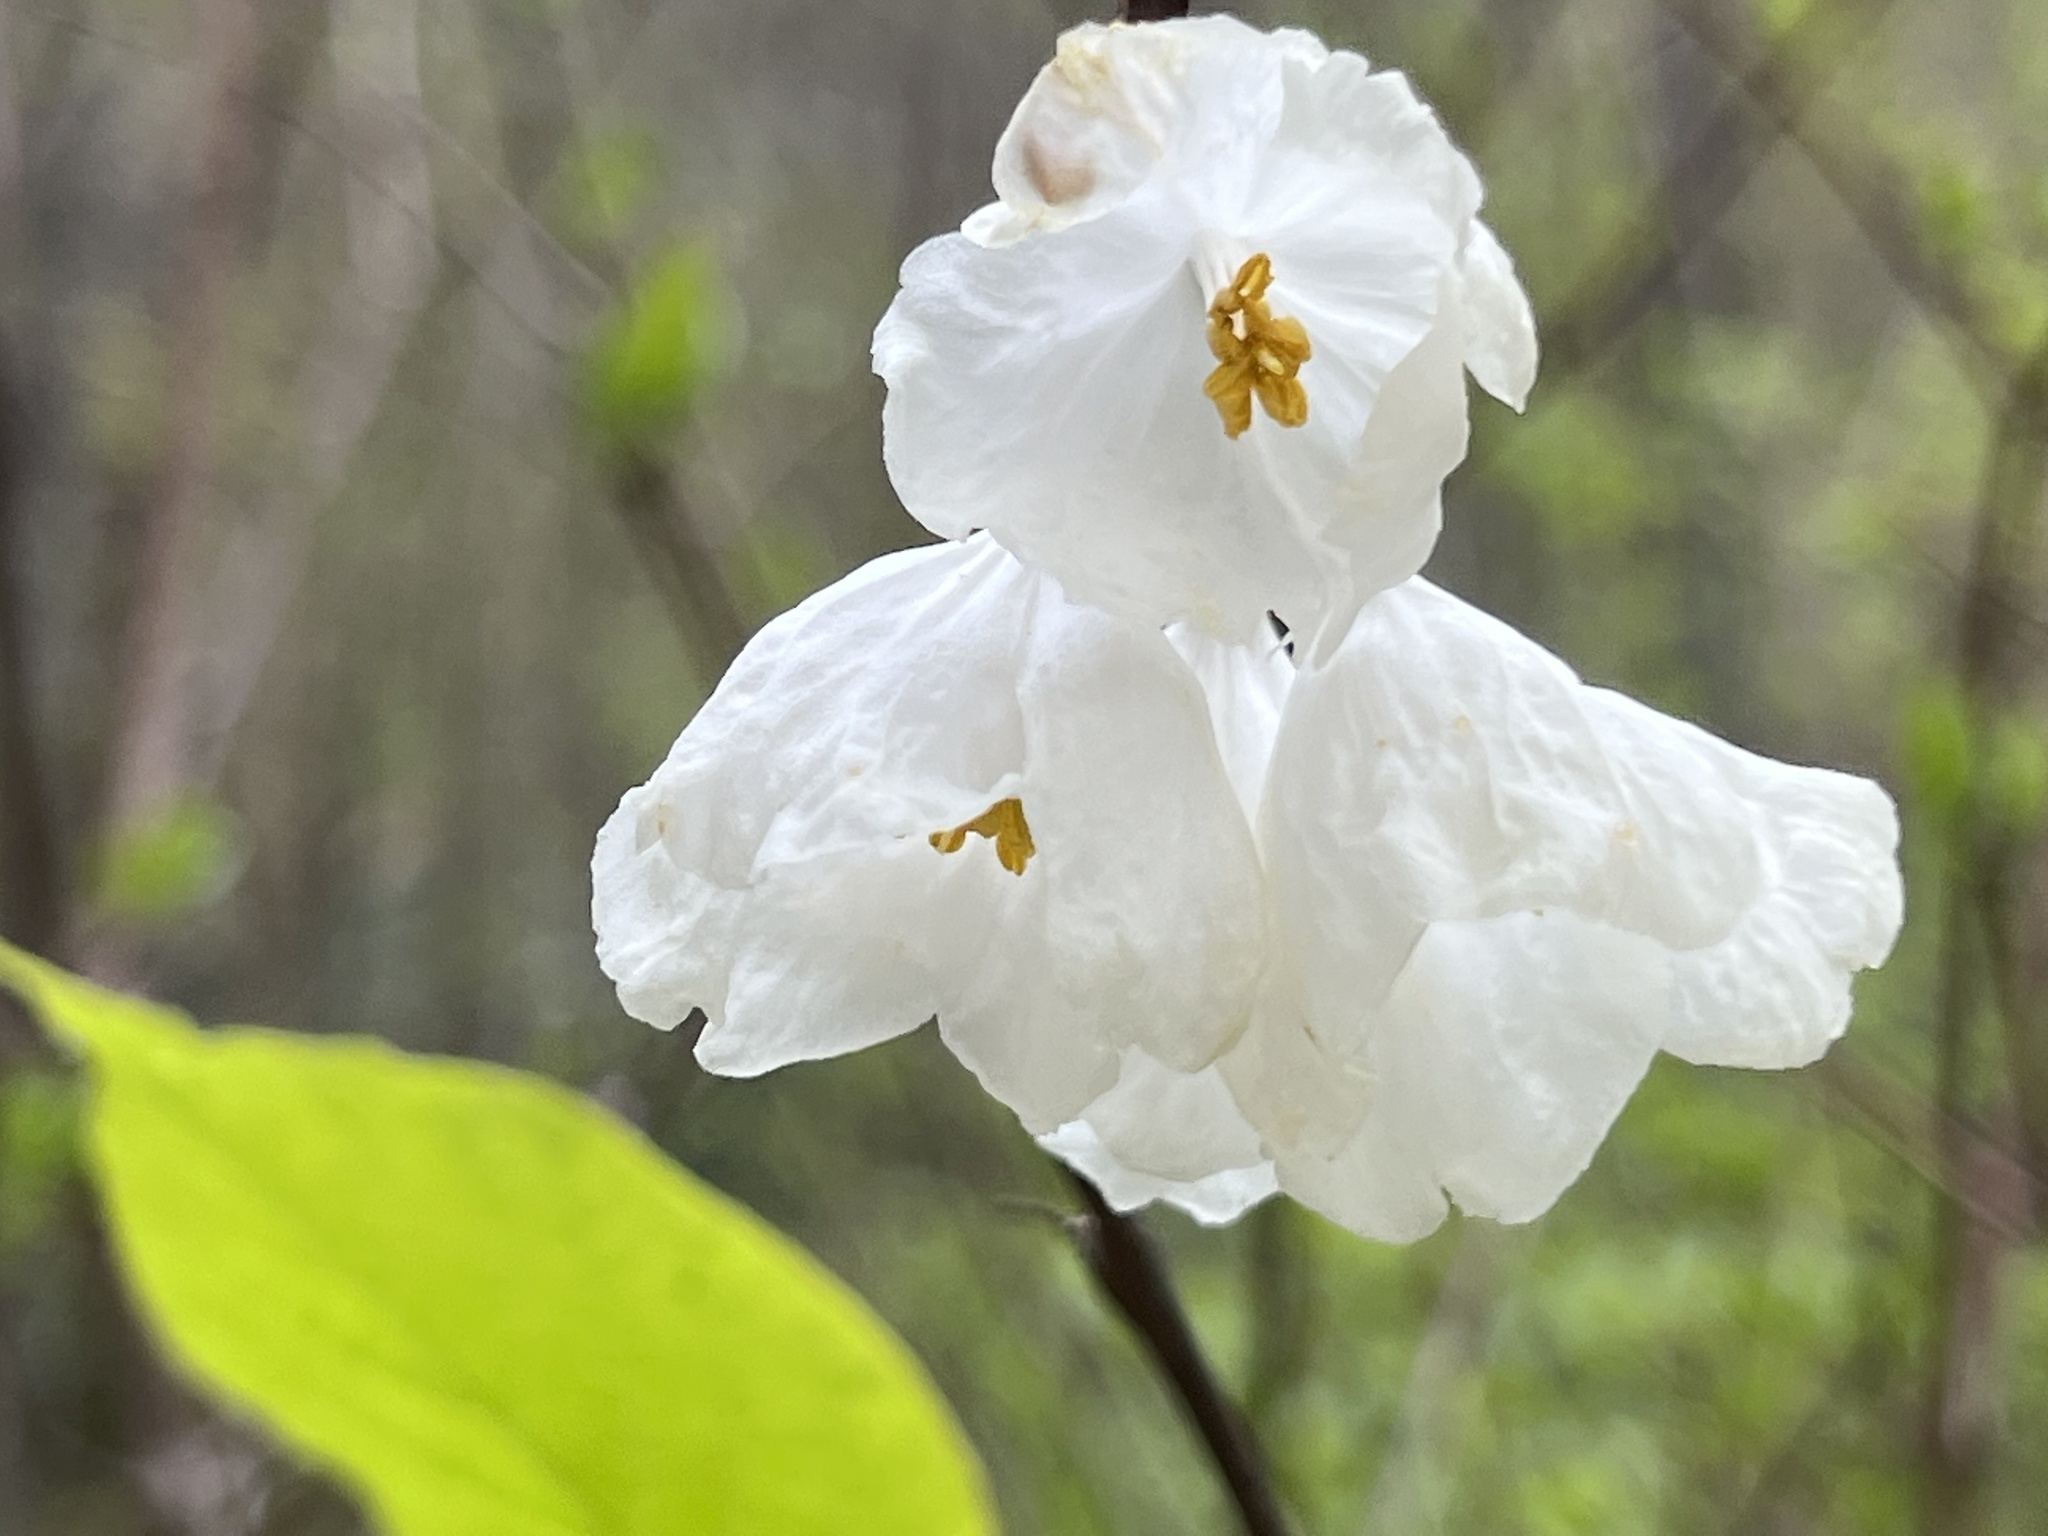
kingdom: Plantae
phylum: Tracheophyta
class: Magnoliopsida
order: Ericales
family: Styracaceae
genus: Halesia
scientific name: Halesia tetraptera
